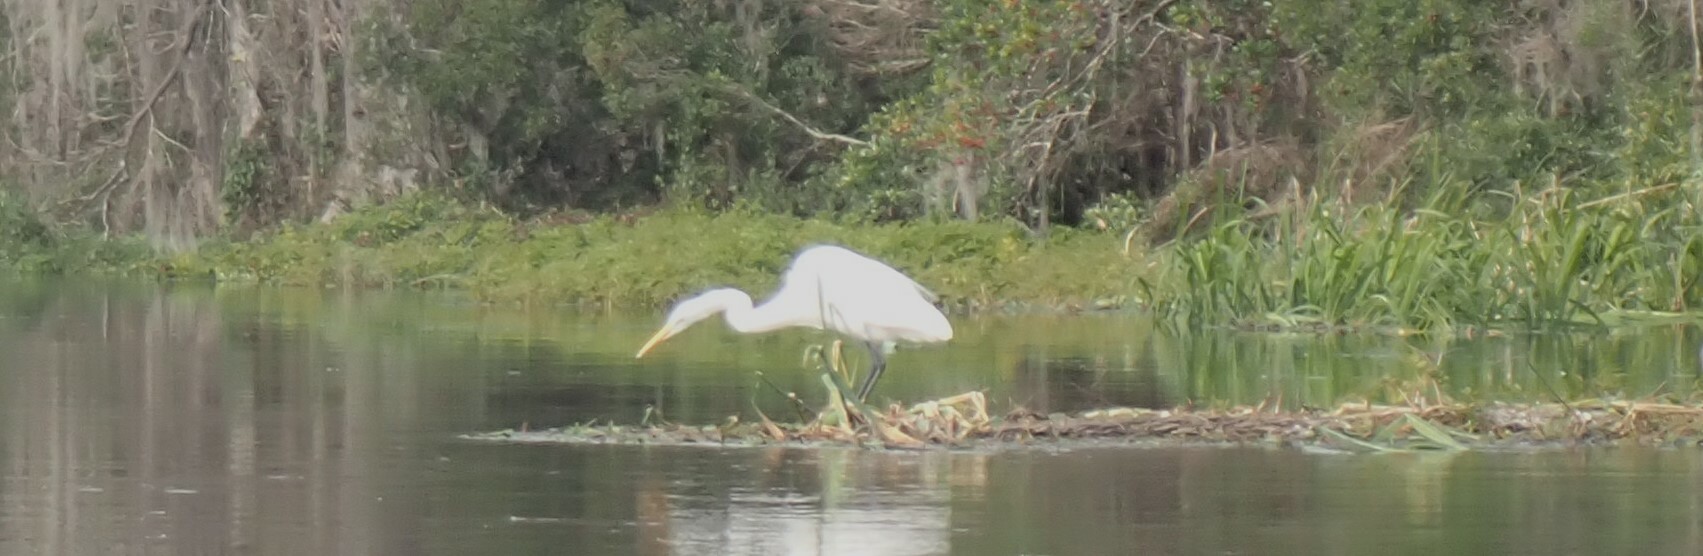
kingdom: Animalia
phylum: Chordata
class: Aves
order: Pelecaniformes
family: Ardeidae
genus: Ardea
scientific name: Ardea alba
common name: Great egret
